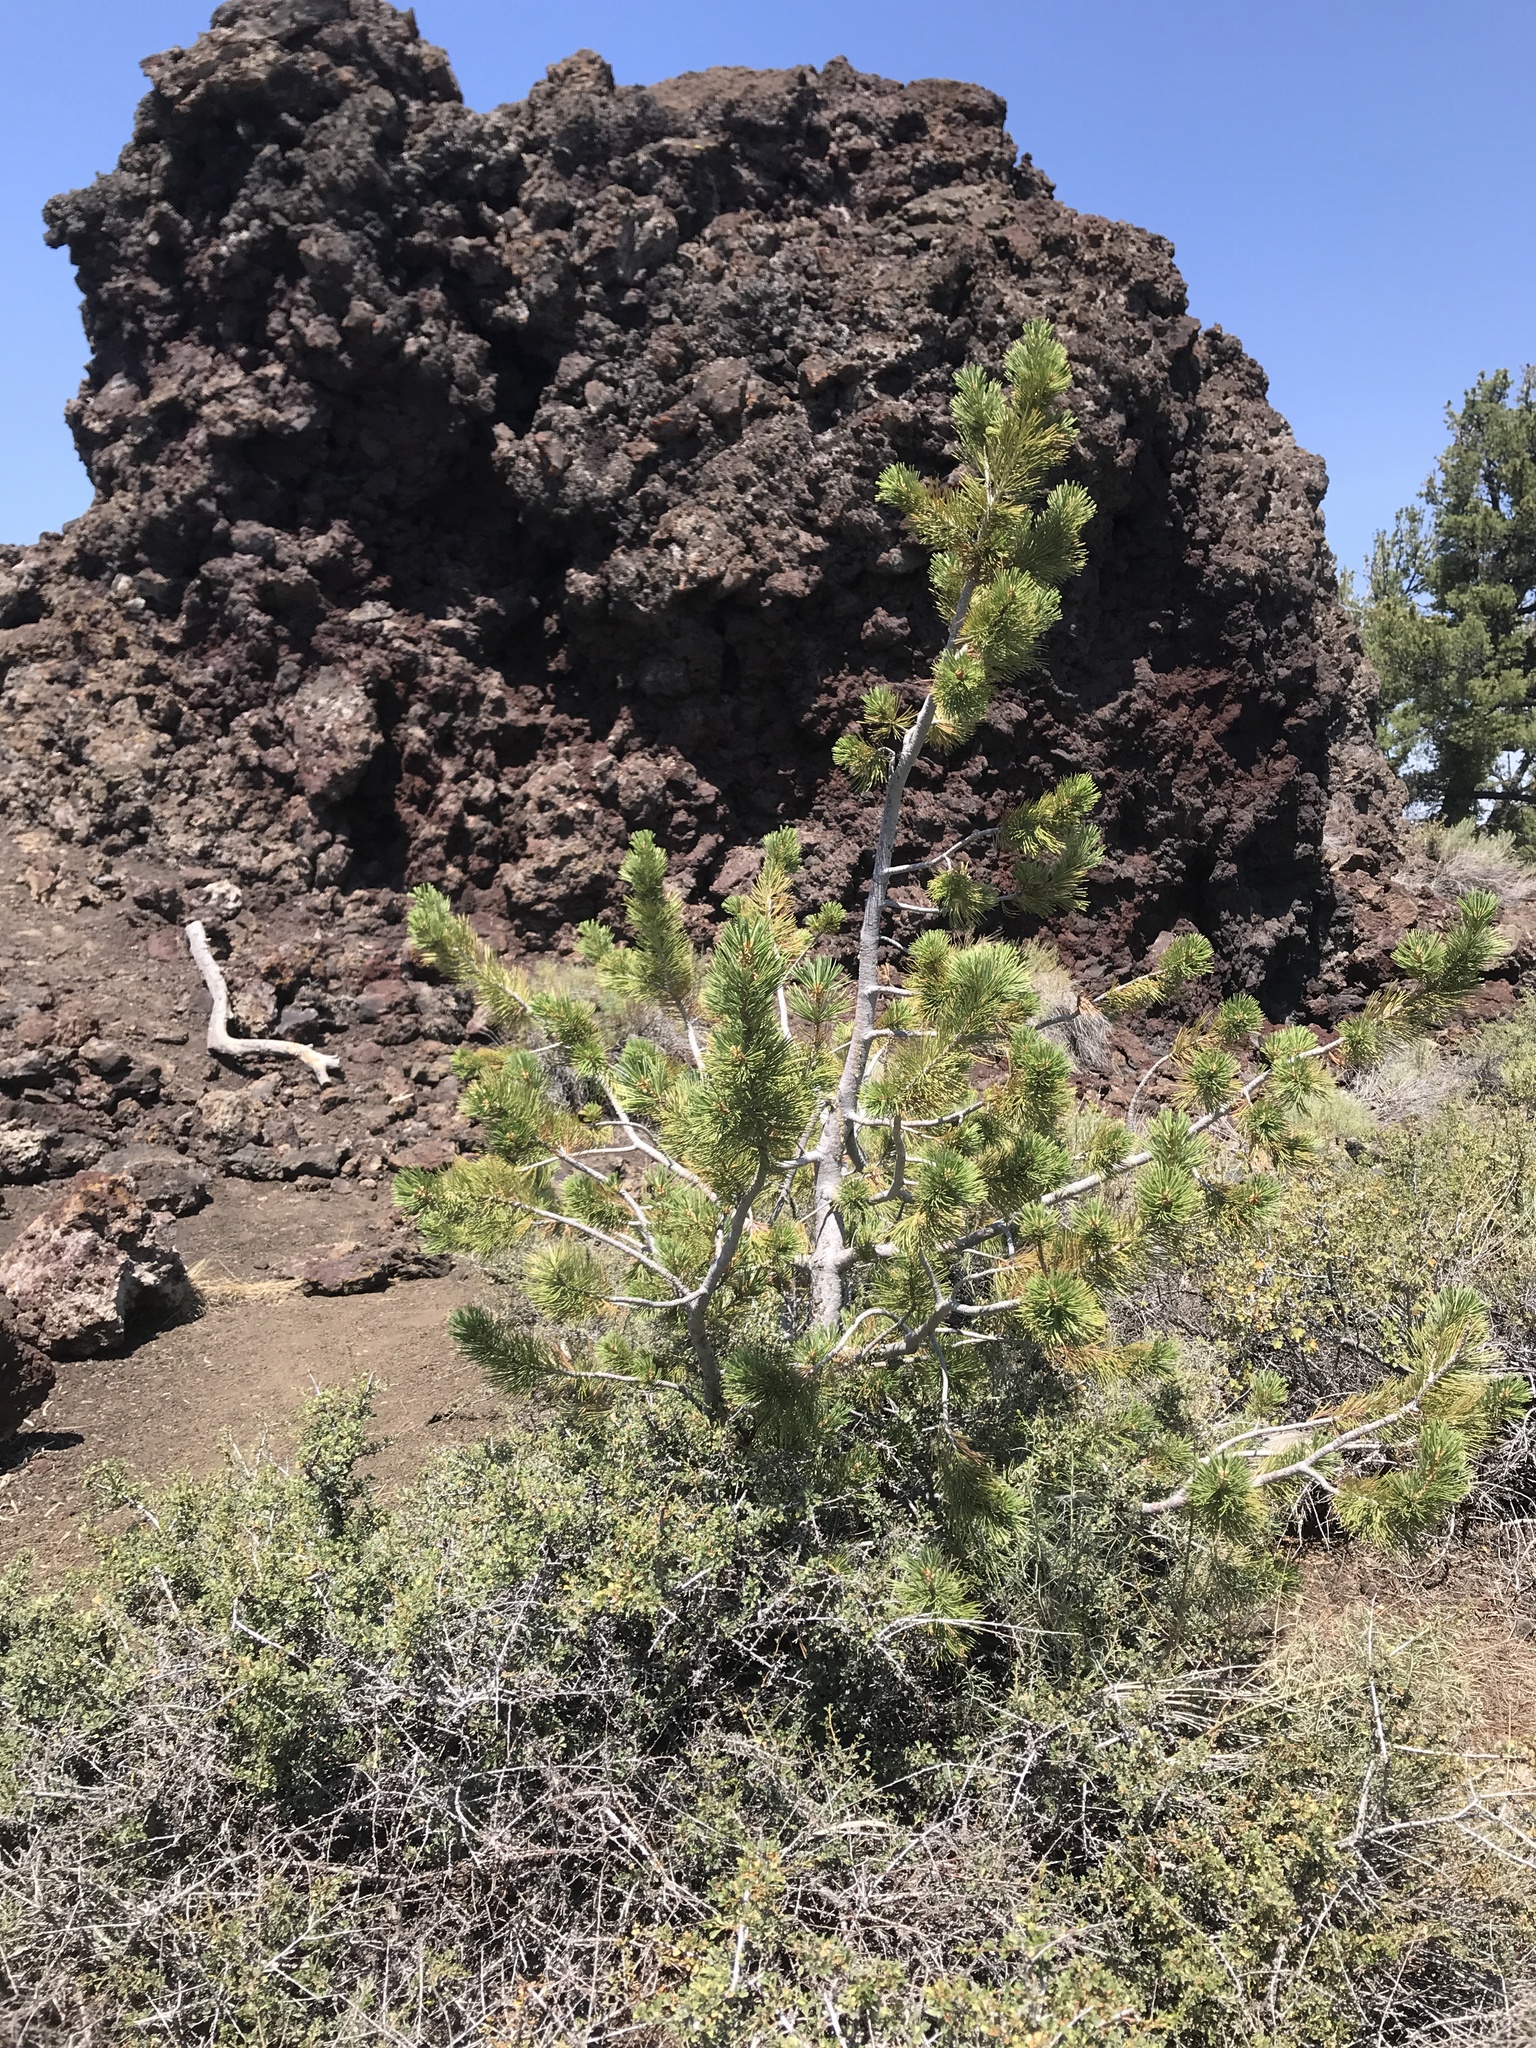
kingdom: Plantae
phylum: Tracheophyta
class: Pinopsida
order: Pinales
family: Pinaceae
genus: Pinus
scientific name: Pinus flexilis
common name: Limber pine
